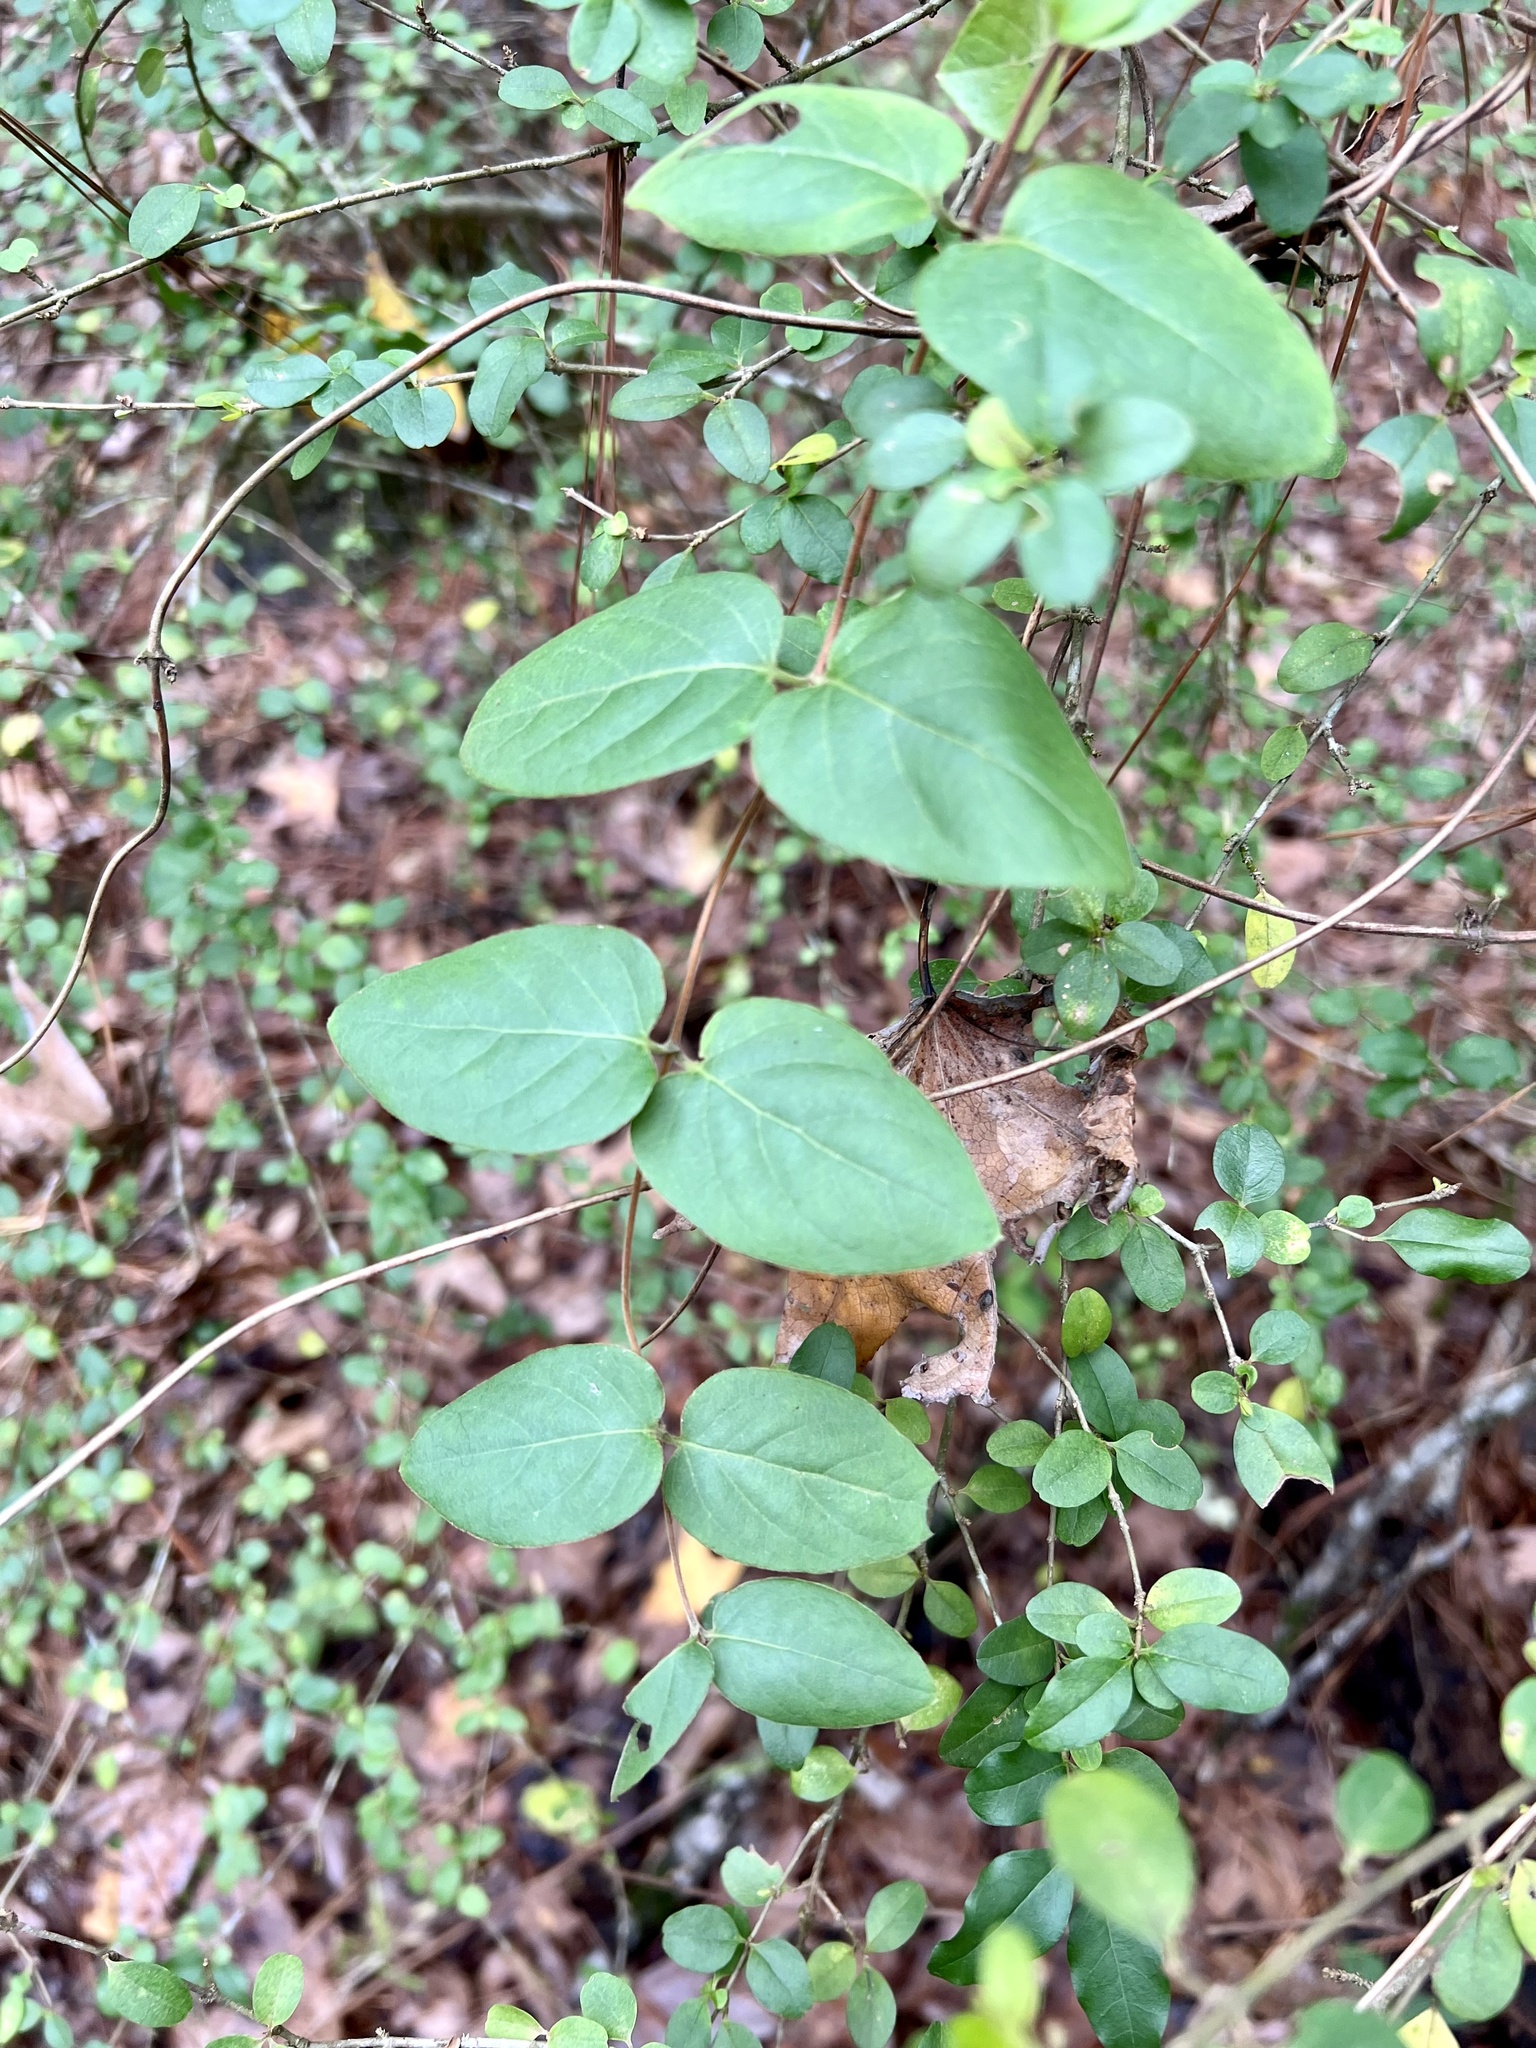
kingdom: Plantae
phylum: Tracheophyta
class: Magnoliopsida
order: Dipsacales
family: Caprifoliaceae
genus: Lonicera
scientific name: Lonicera japonica
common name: Japanese honeysuckle
